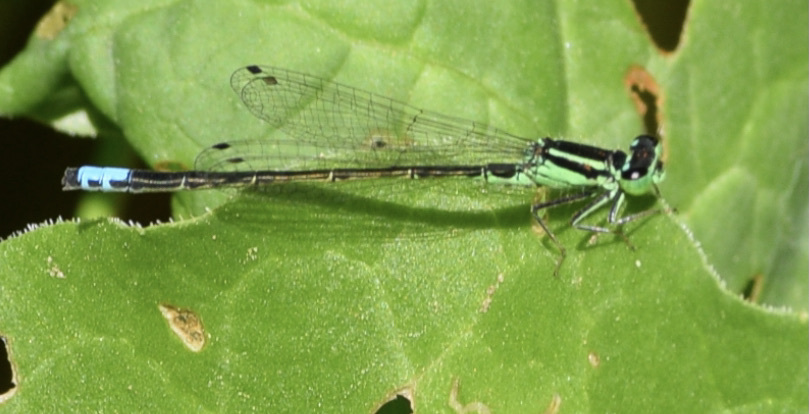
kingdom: Animalia
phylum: Arthropoda
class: Insecta
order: Odonata
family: Coenagrionidae
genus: Ischnura
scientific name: Ischnura verticalis
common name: Eastern forktail
